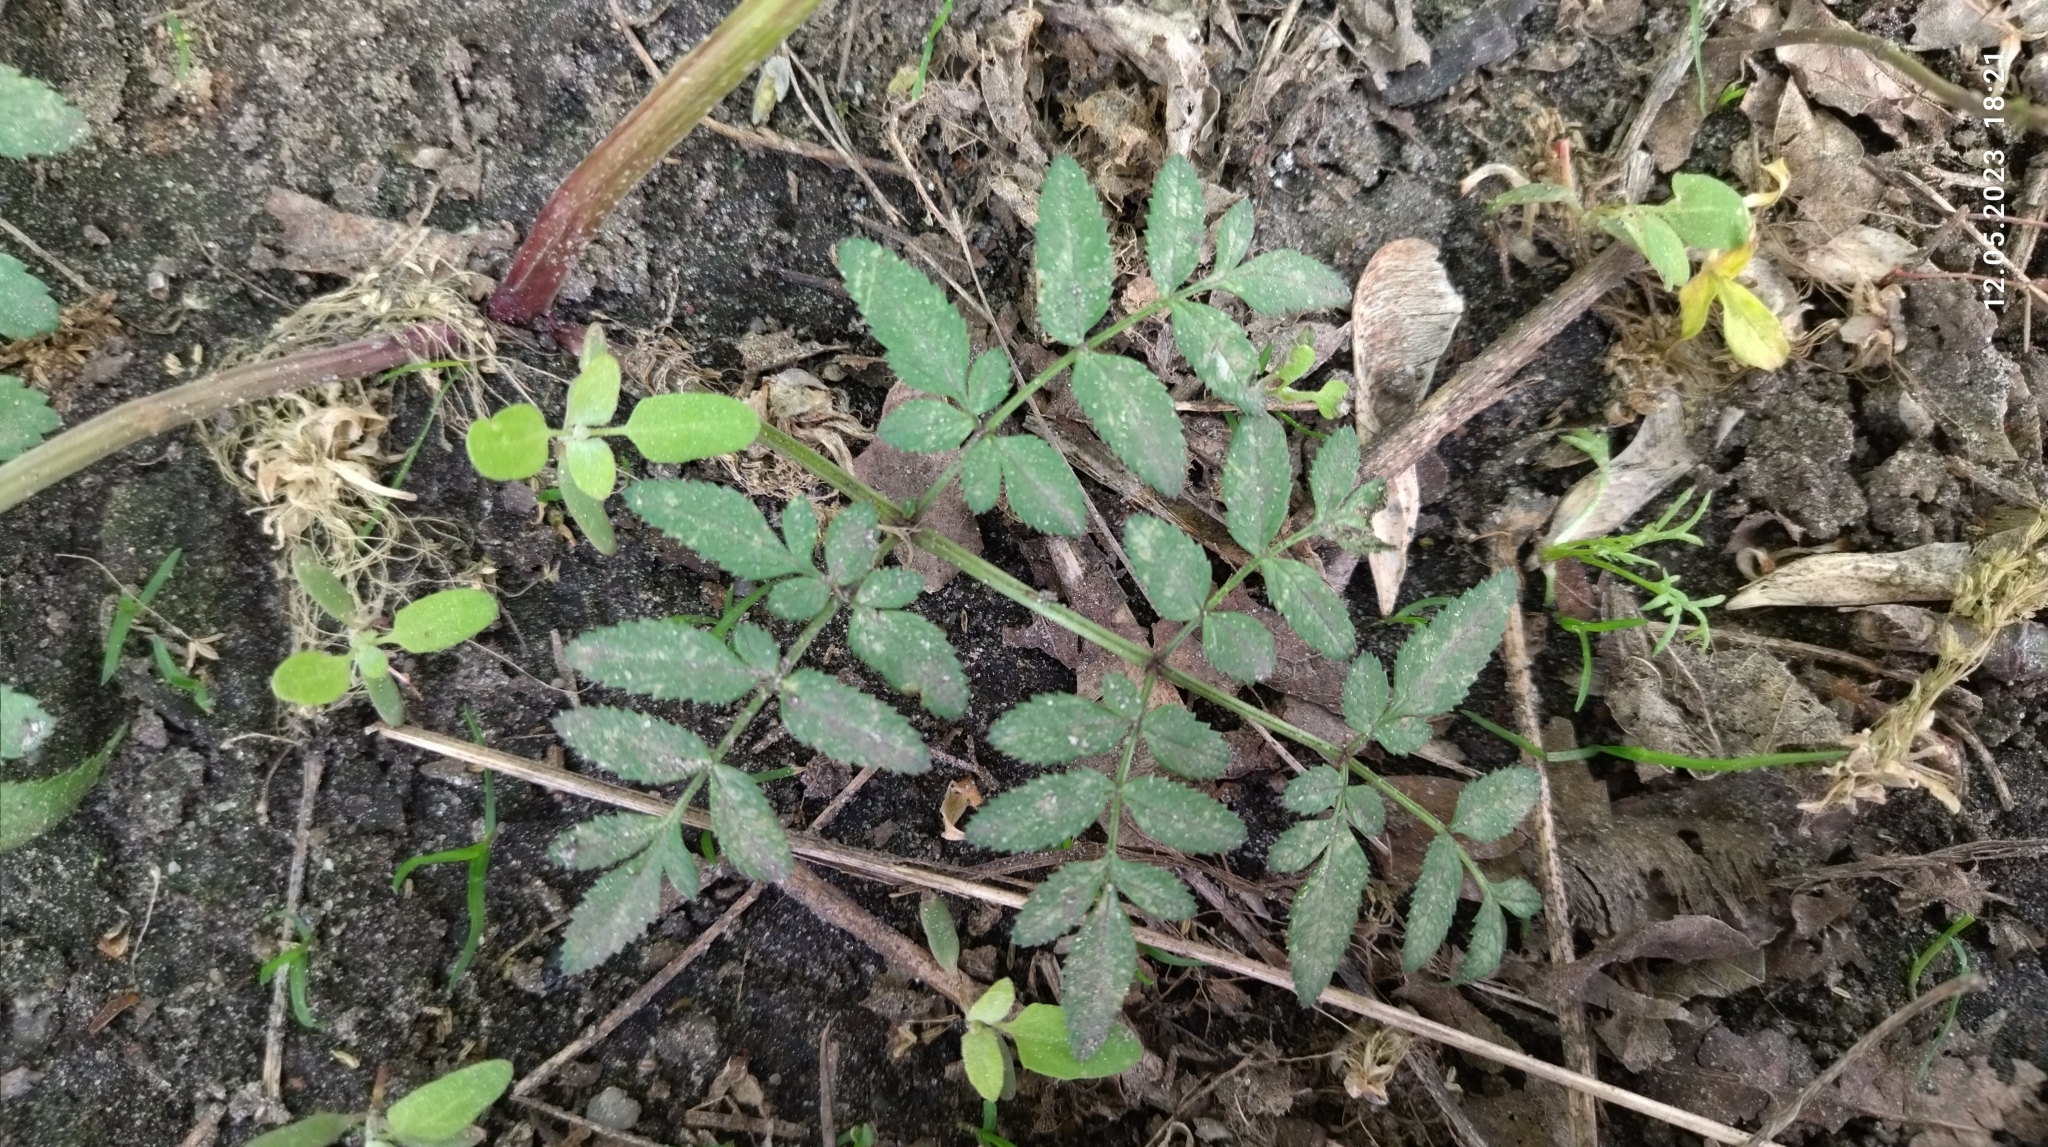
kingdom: Plantae
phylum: Tracheophyta
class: Magnoliopsida
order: Apiales
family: Apiaceae
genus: Angelica
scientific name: Angelica sylvestris
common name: Wild angelica
